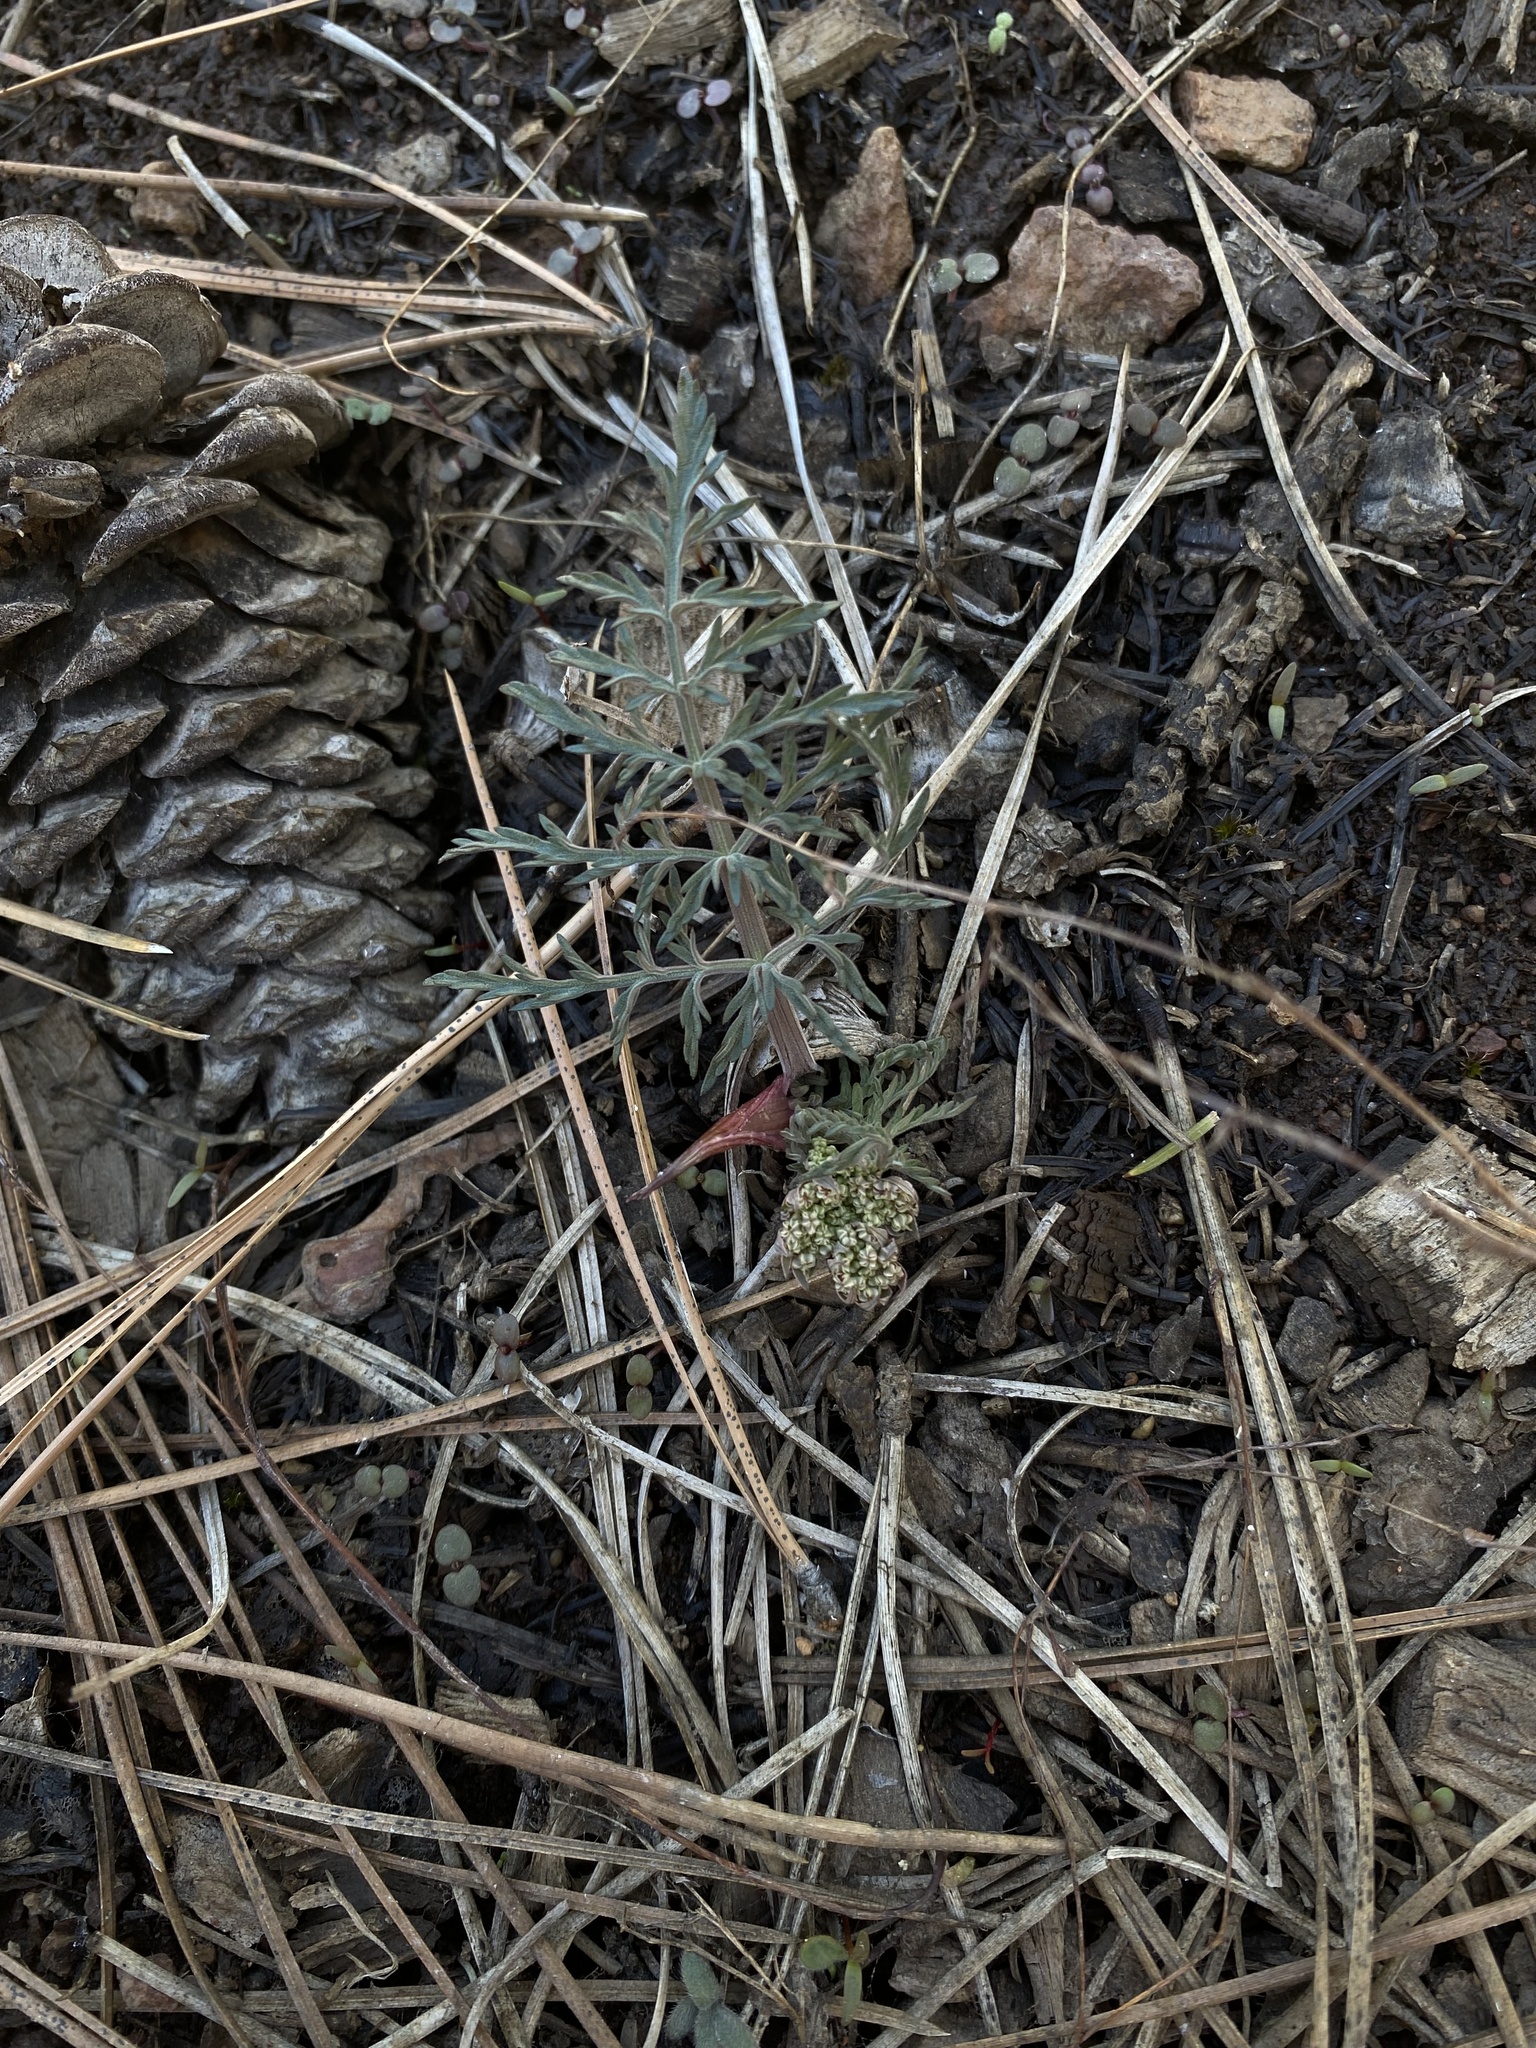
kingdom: Plantae
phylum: Tracheophyta
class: Magnoliopsida
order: Apiales
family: Apiaceae
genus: Lomatium
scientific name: Lomatium nevadense
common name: Nevada lomatium
